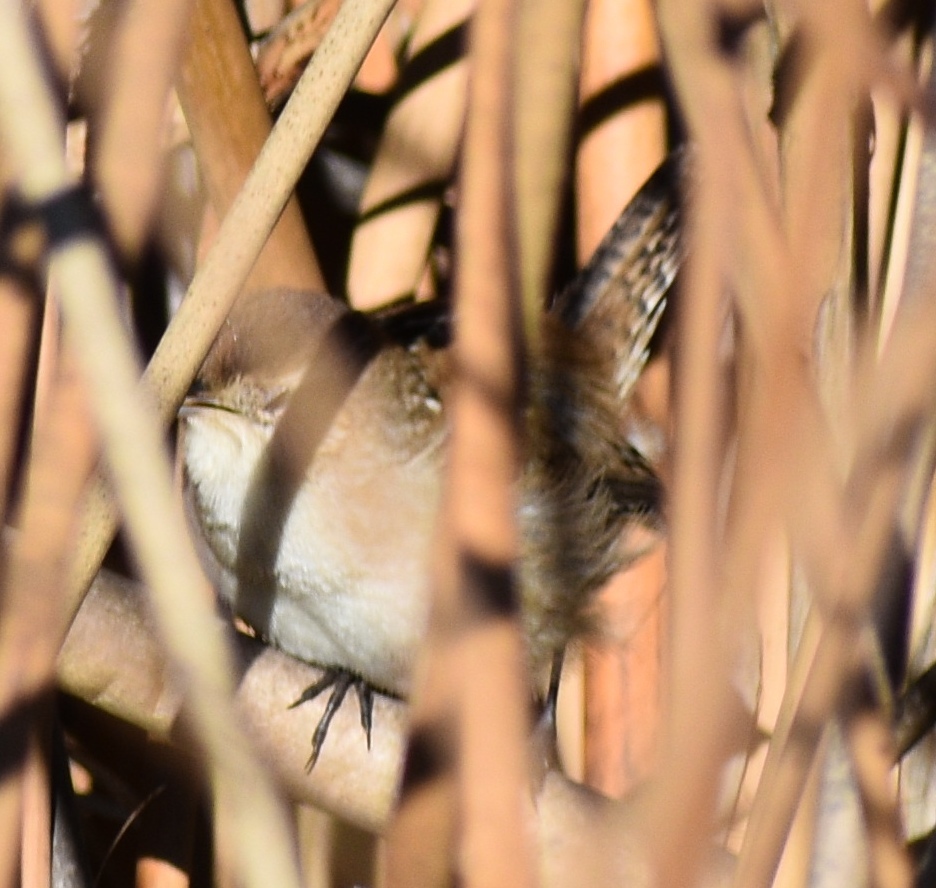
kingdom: Animalia
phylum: Chordata
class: Aves
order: Passeriformes
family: Troglodytidae
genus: Cistothorus
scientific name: Cistothorus palustris
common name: Marsh wren
